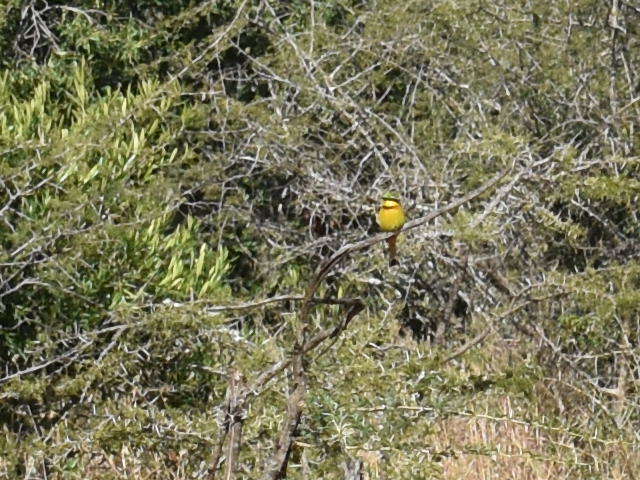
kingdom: Animalia
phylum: Chordata
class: Aves
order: Coraciiformes
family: Meropidae
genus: Merops
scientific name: Merops pusillus
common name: Little bee-eater
